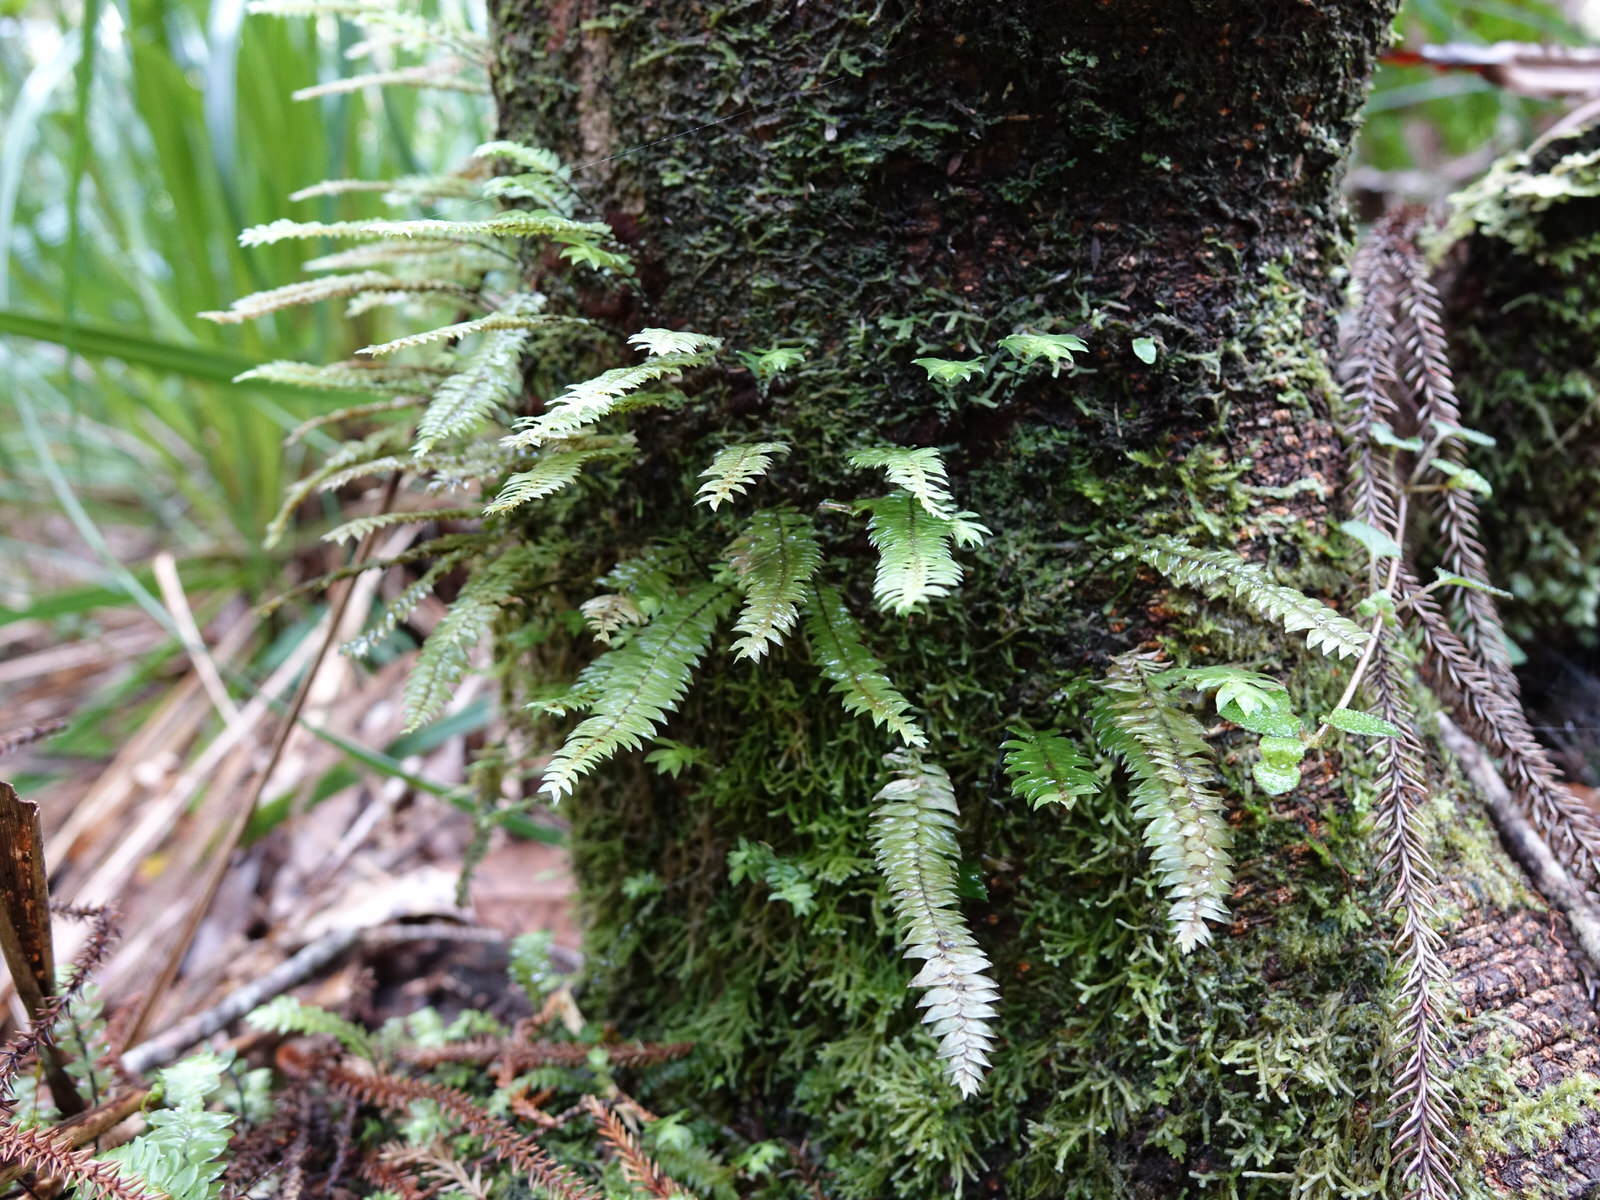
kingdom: Plantae
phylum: Bryophyta
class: Bryopsida
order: Hypopterygiales
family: Hypopterygiaceae
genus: Cyathophorum
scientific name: Cyathophorum bulbosum
